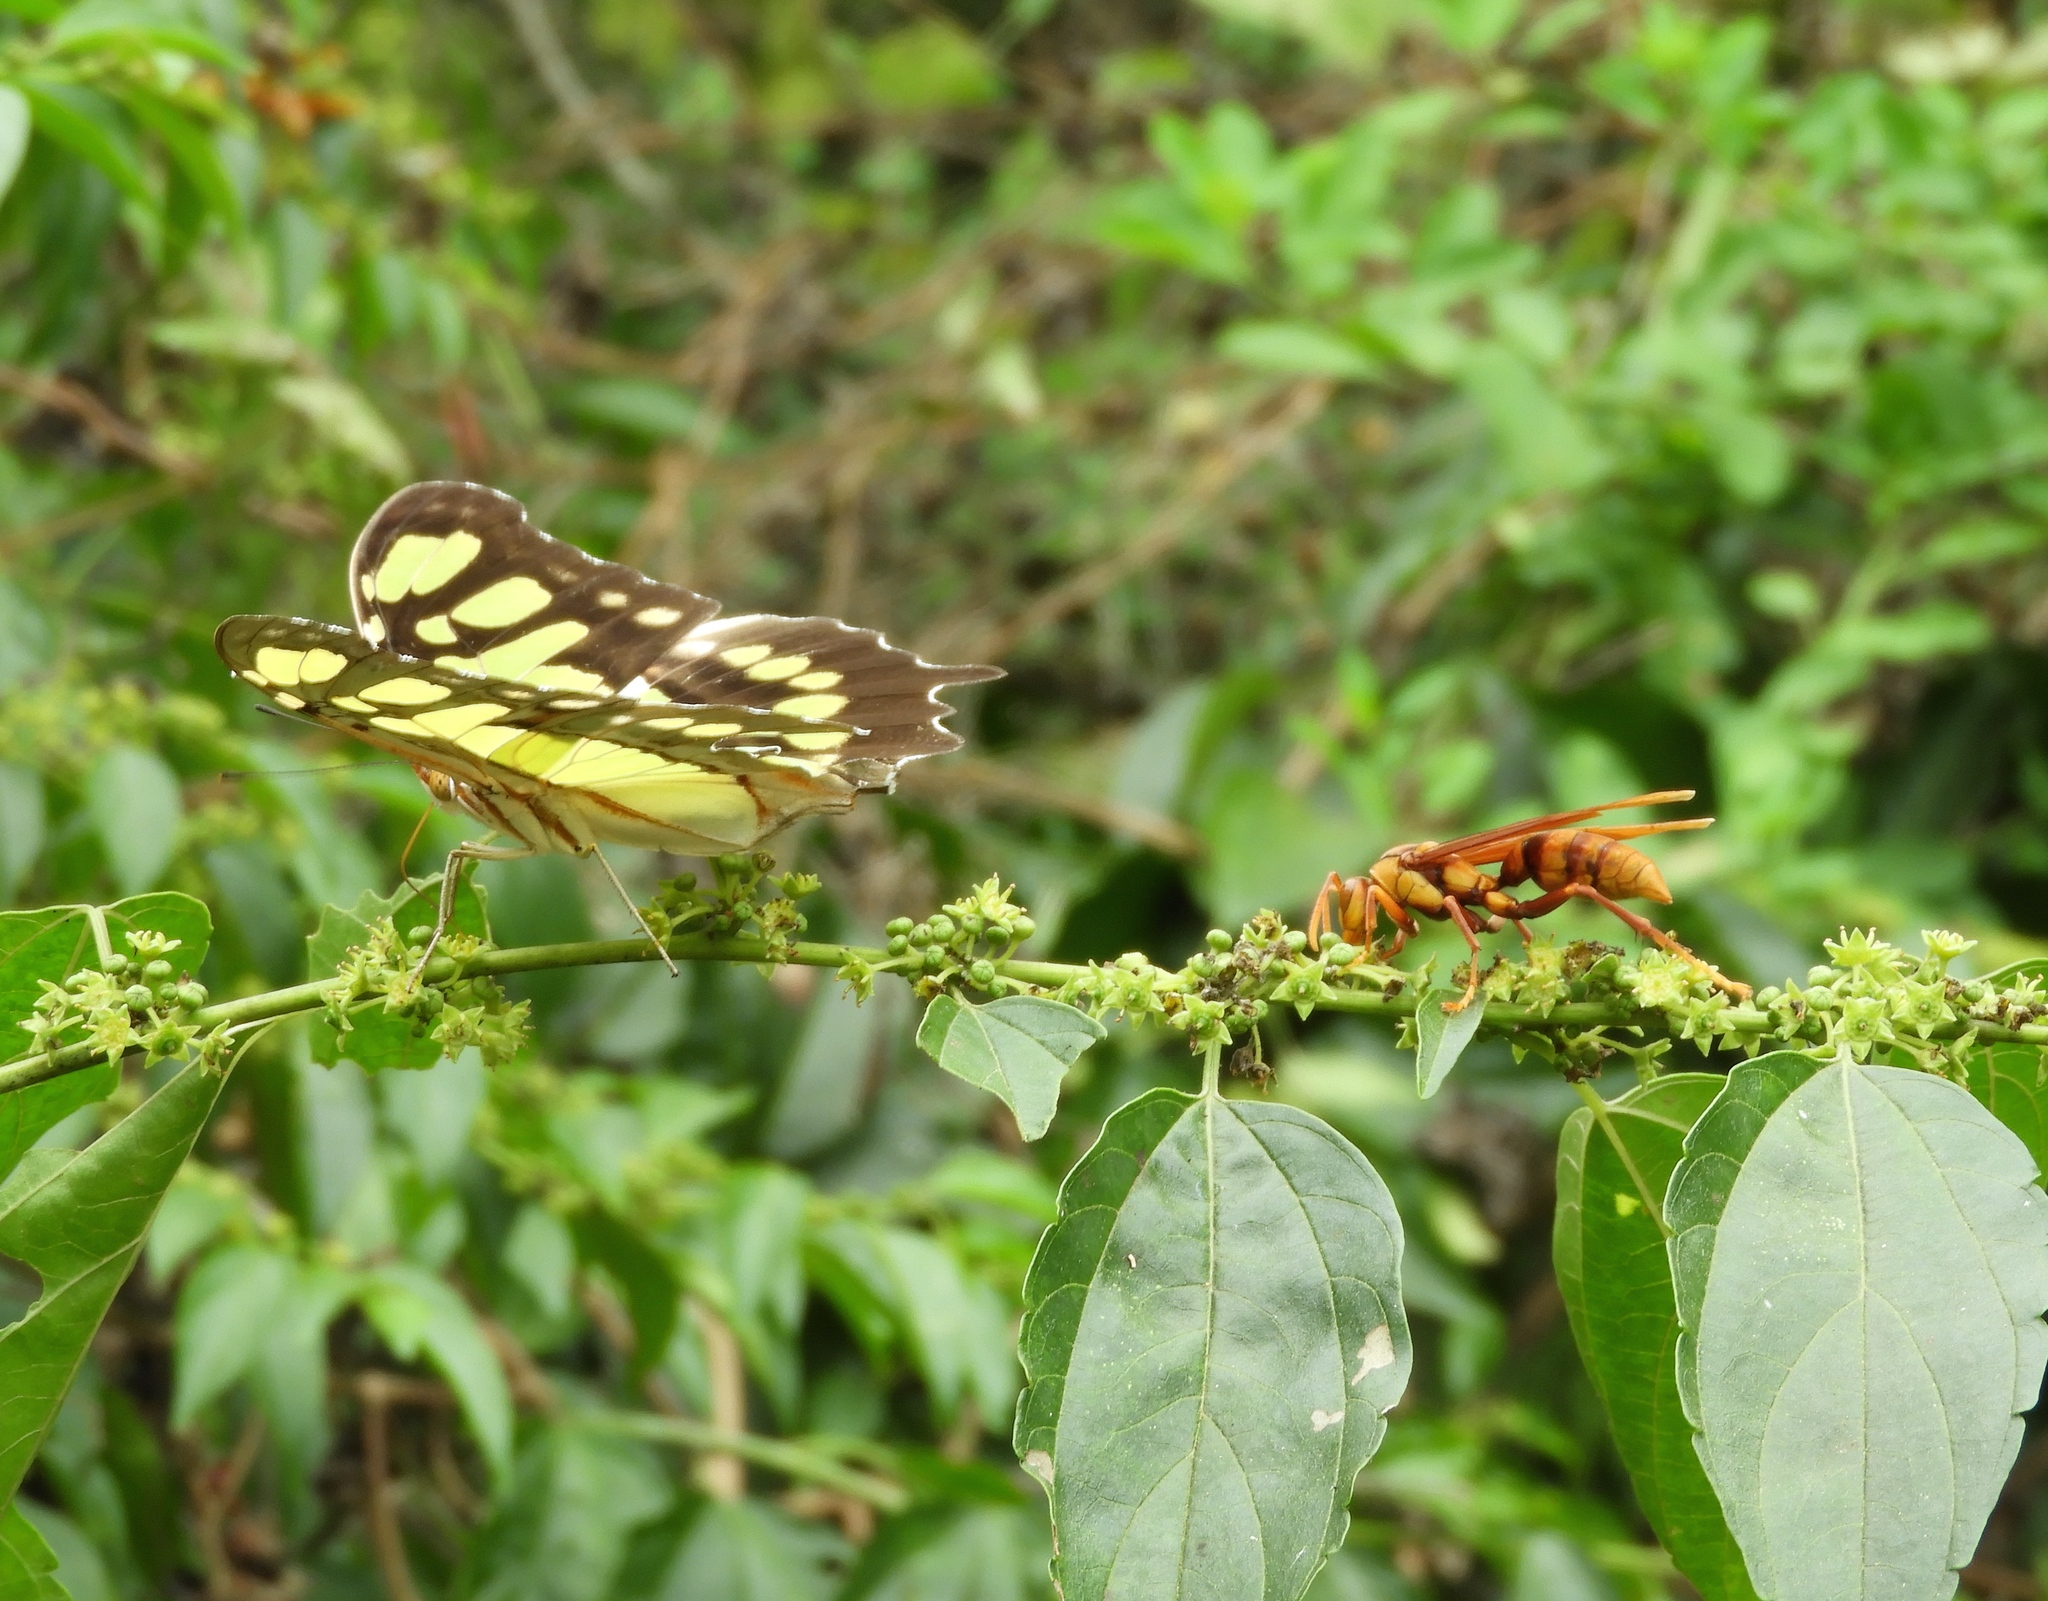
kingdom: Animalia
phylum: Arthropoda
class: Insecta
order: Lepidoptera
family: Nymphalidae
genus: Siproeta
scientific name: Siproeta stelenes
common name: Malachite
